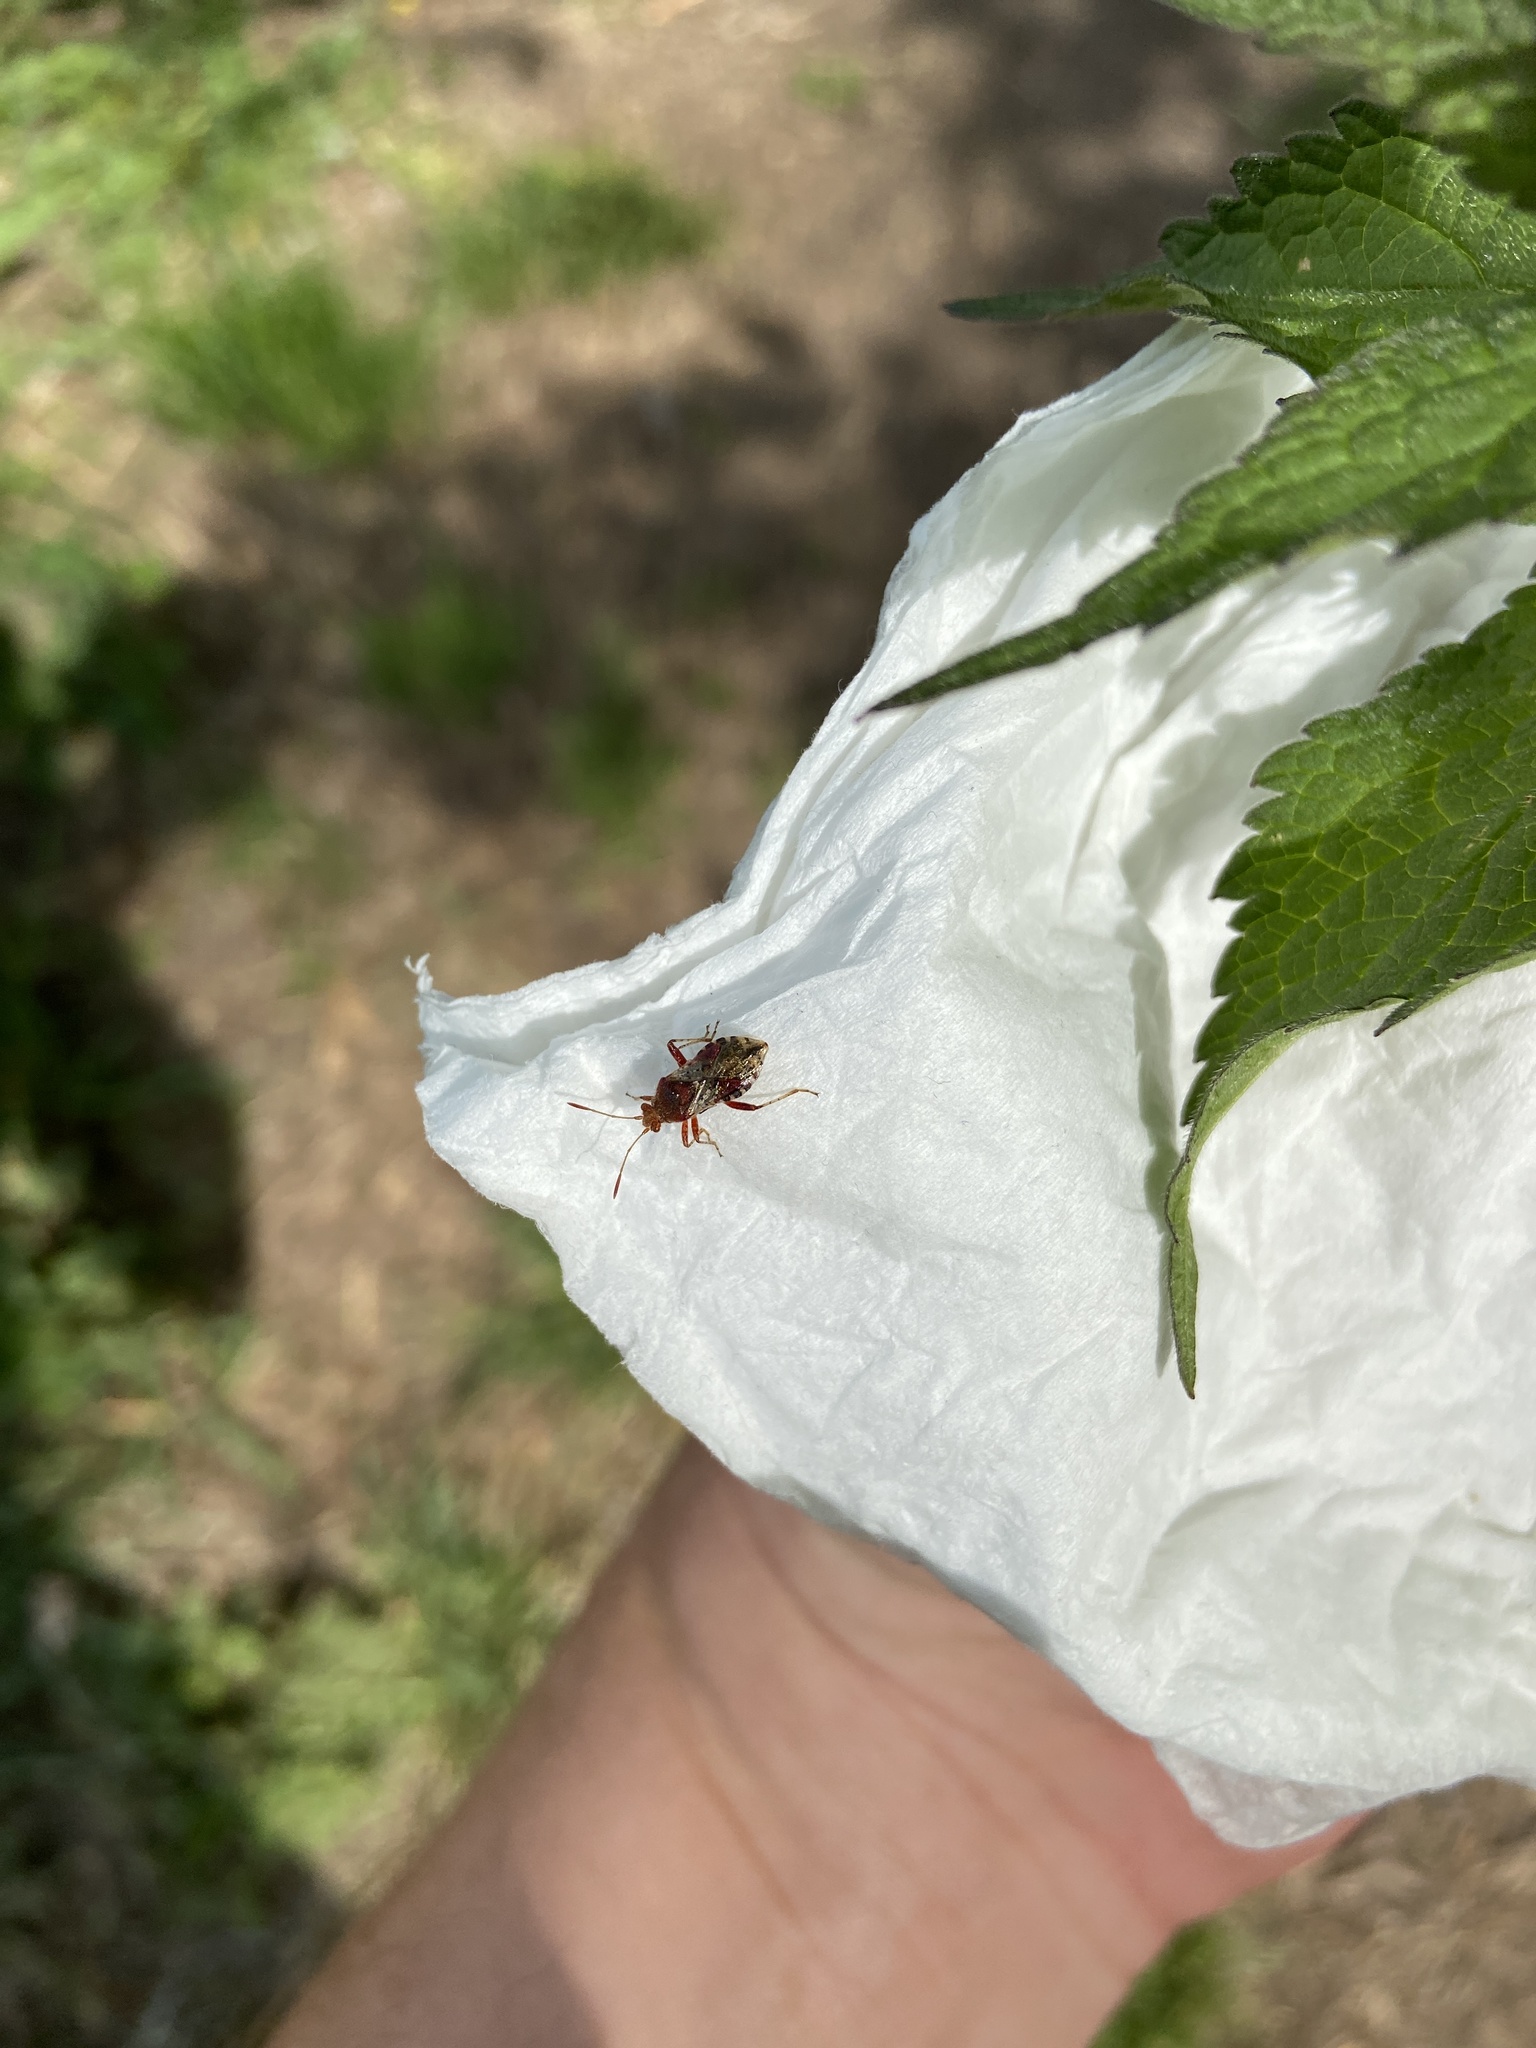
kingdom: Animalia
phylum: Arthropoda
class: Insecta
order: Hemiptera
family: Rhopalidae
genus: Rhopalus
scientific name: Rhopalus subrufus
